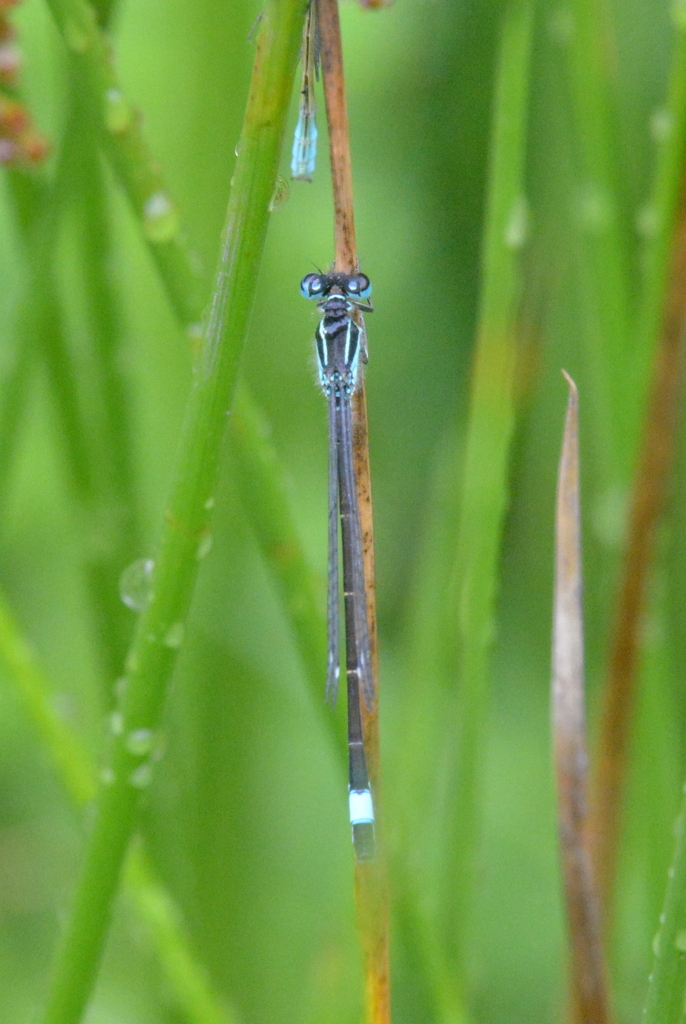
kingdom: Animalia
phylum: Arthropoda
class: Insecta
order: Odonata
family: Coenagrionidae
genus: Ischnura
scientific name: Ischnura elegans
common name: Blue-tailed damselfly
